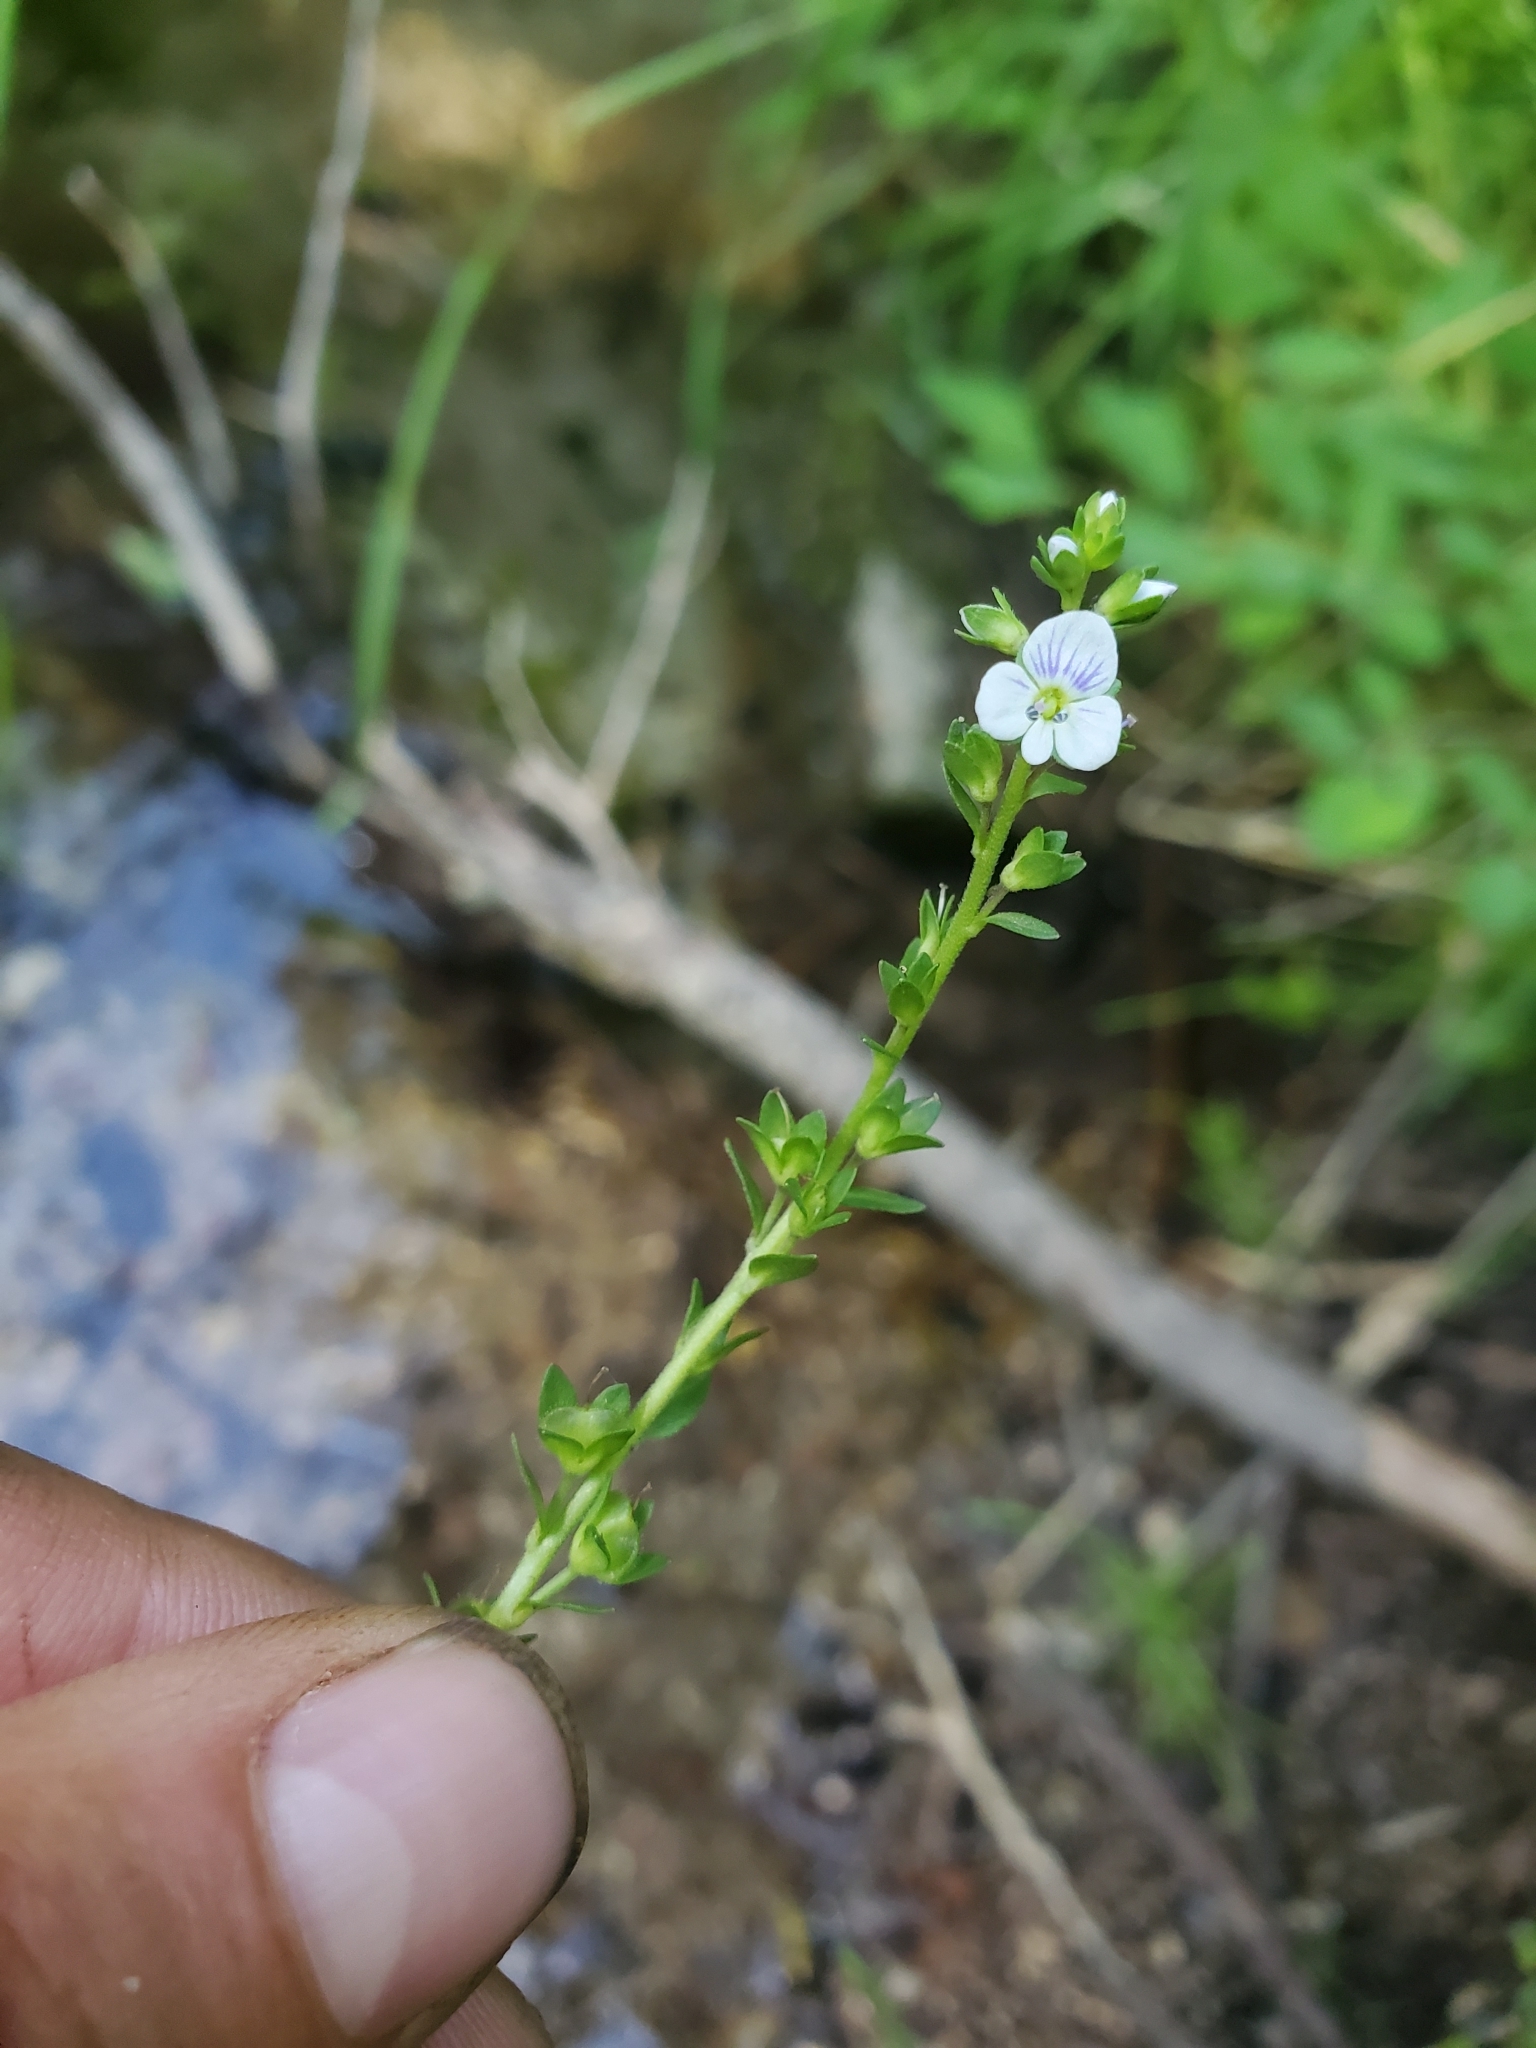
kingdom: Plantae
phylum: Tracheophyta
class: Magnoliopsida
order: Lamiales
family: Plantaginaceae
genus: Veronica
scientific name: Veronica serpyllifolia
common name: Thyme-leaved speedwell
